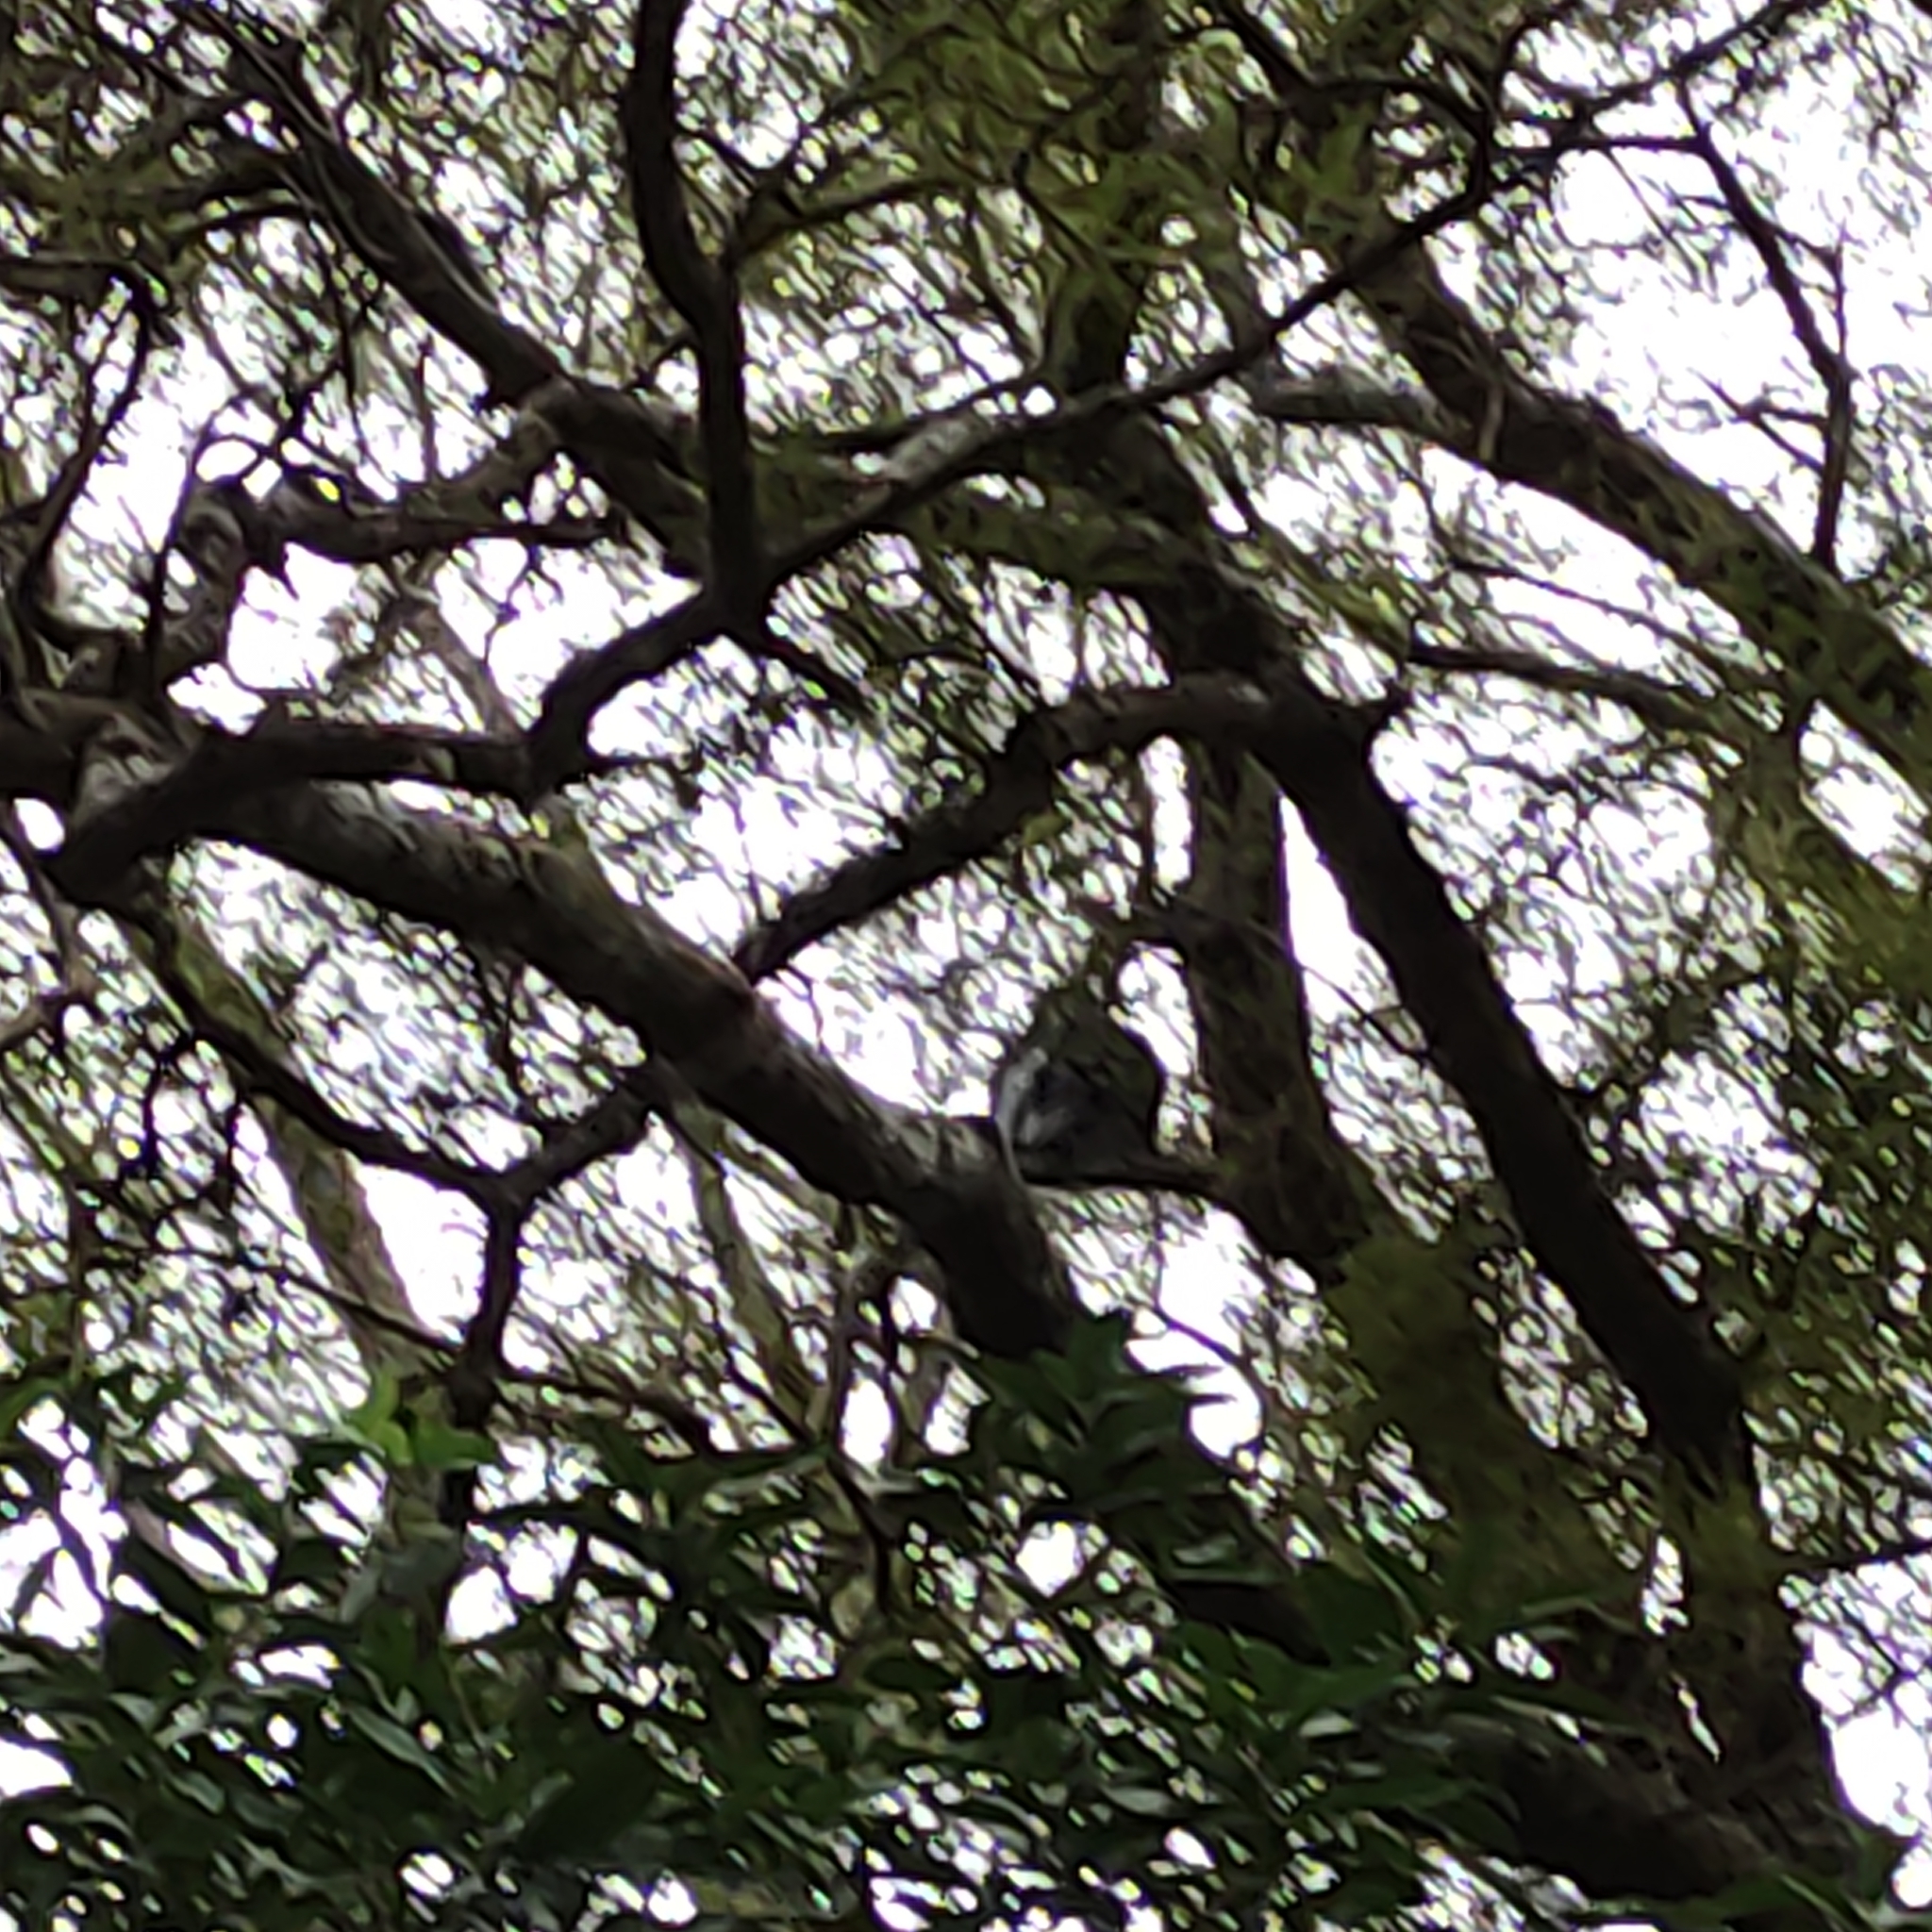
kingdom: Animalia
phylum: Chordata
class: Aves
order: Columbiformes
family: Columbidae
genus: Hemiphaga
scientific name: Hemiphaga novaeseelandiae
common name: New zealand pigeon
